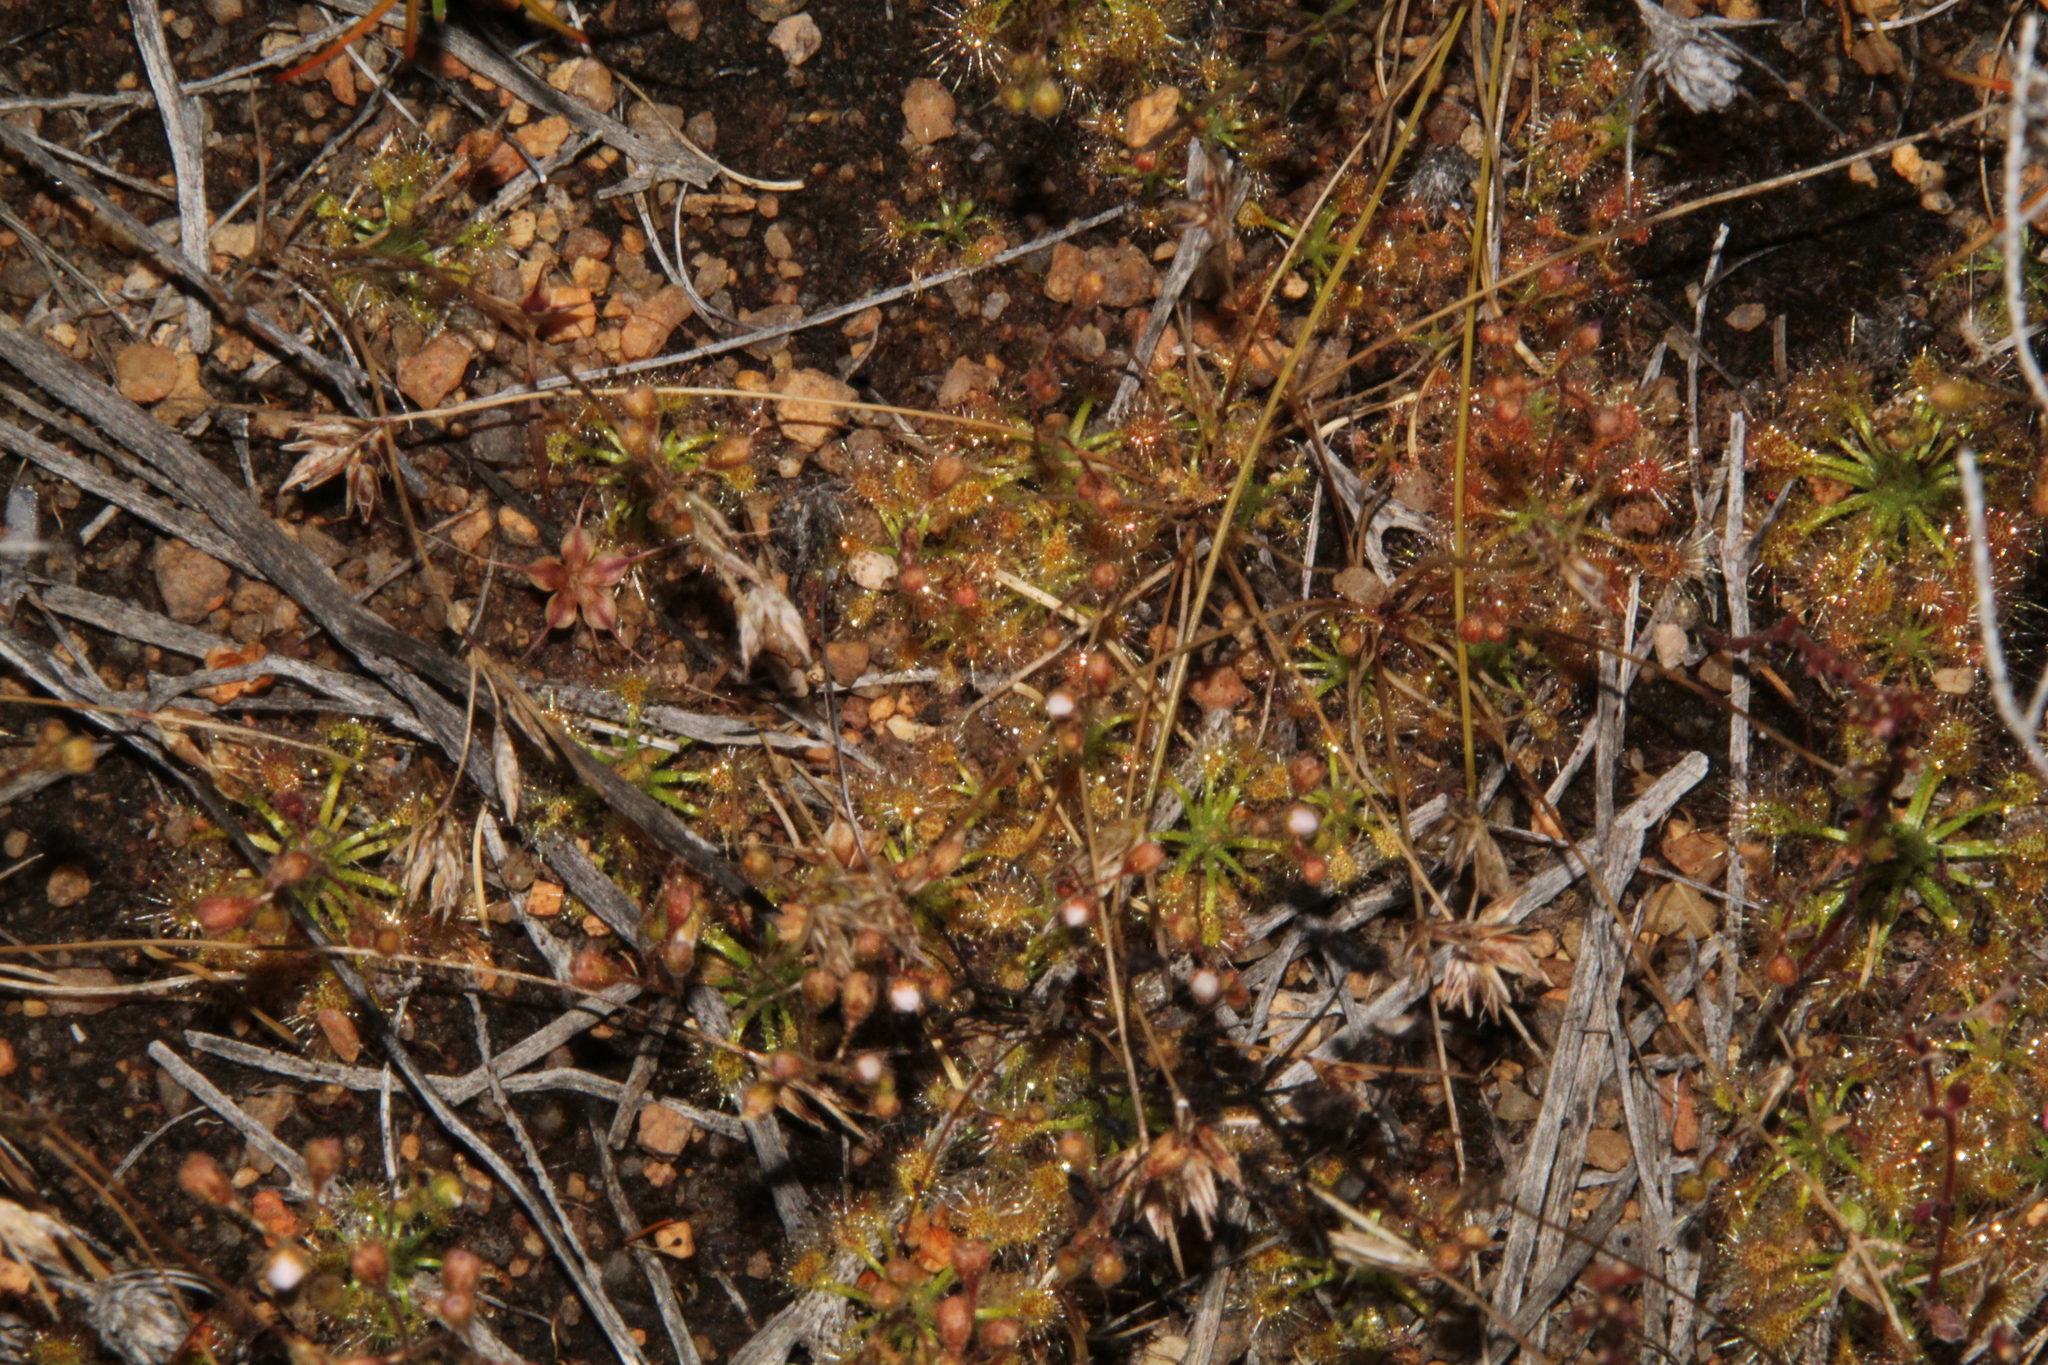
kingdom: Plantae
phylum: Tracheophyta
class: Magnoliopsida
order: Caryophyllales
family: Droseraceae
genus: Drosera
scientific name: Drosera nitidula
